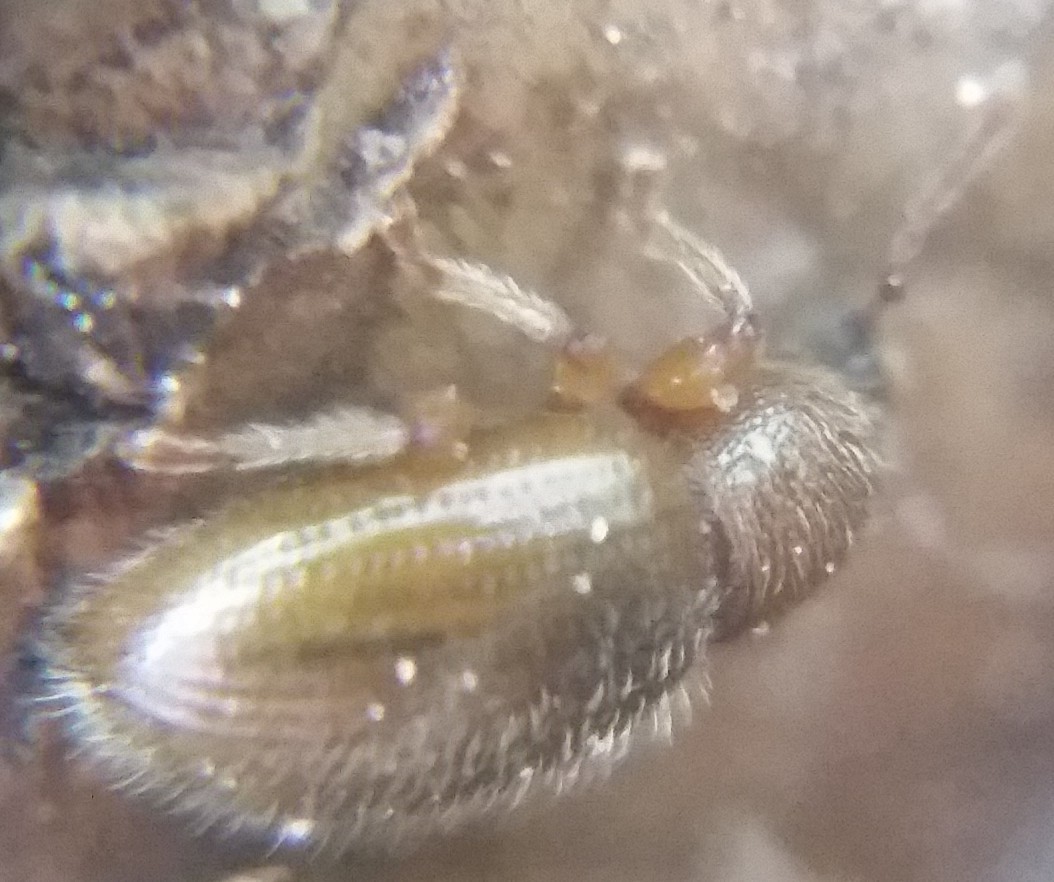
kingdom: Animalia
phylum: Arthropoda
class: Insecta
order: Coleoptera
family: Curculionidae
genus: Exomias
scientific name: Exomias pellucidus
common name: Hairy spider weevil
